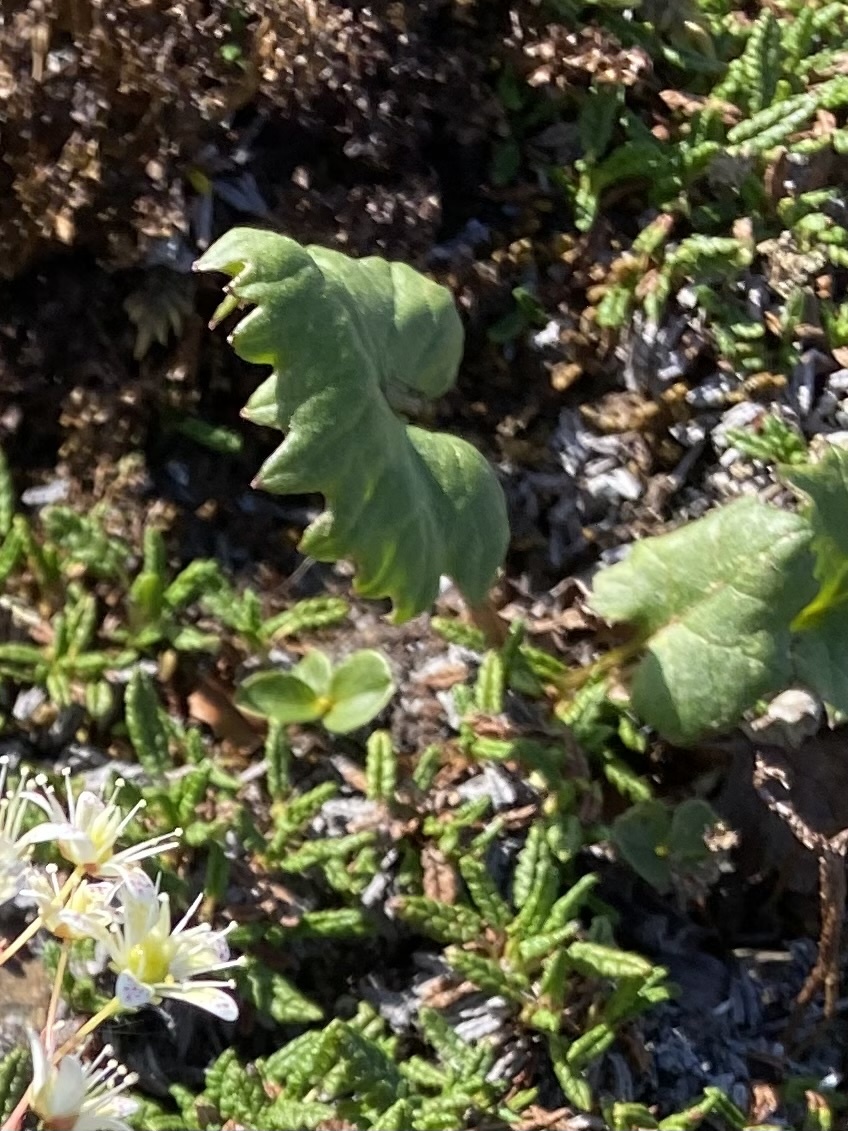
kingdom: Plantae
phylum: Tracheophyta
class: Magnoliopsida
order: Asterales
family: Asteraceae
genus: Endocellion
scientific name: Endocellion glaciale
